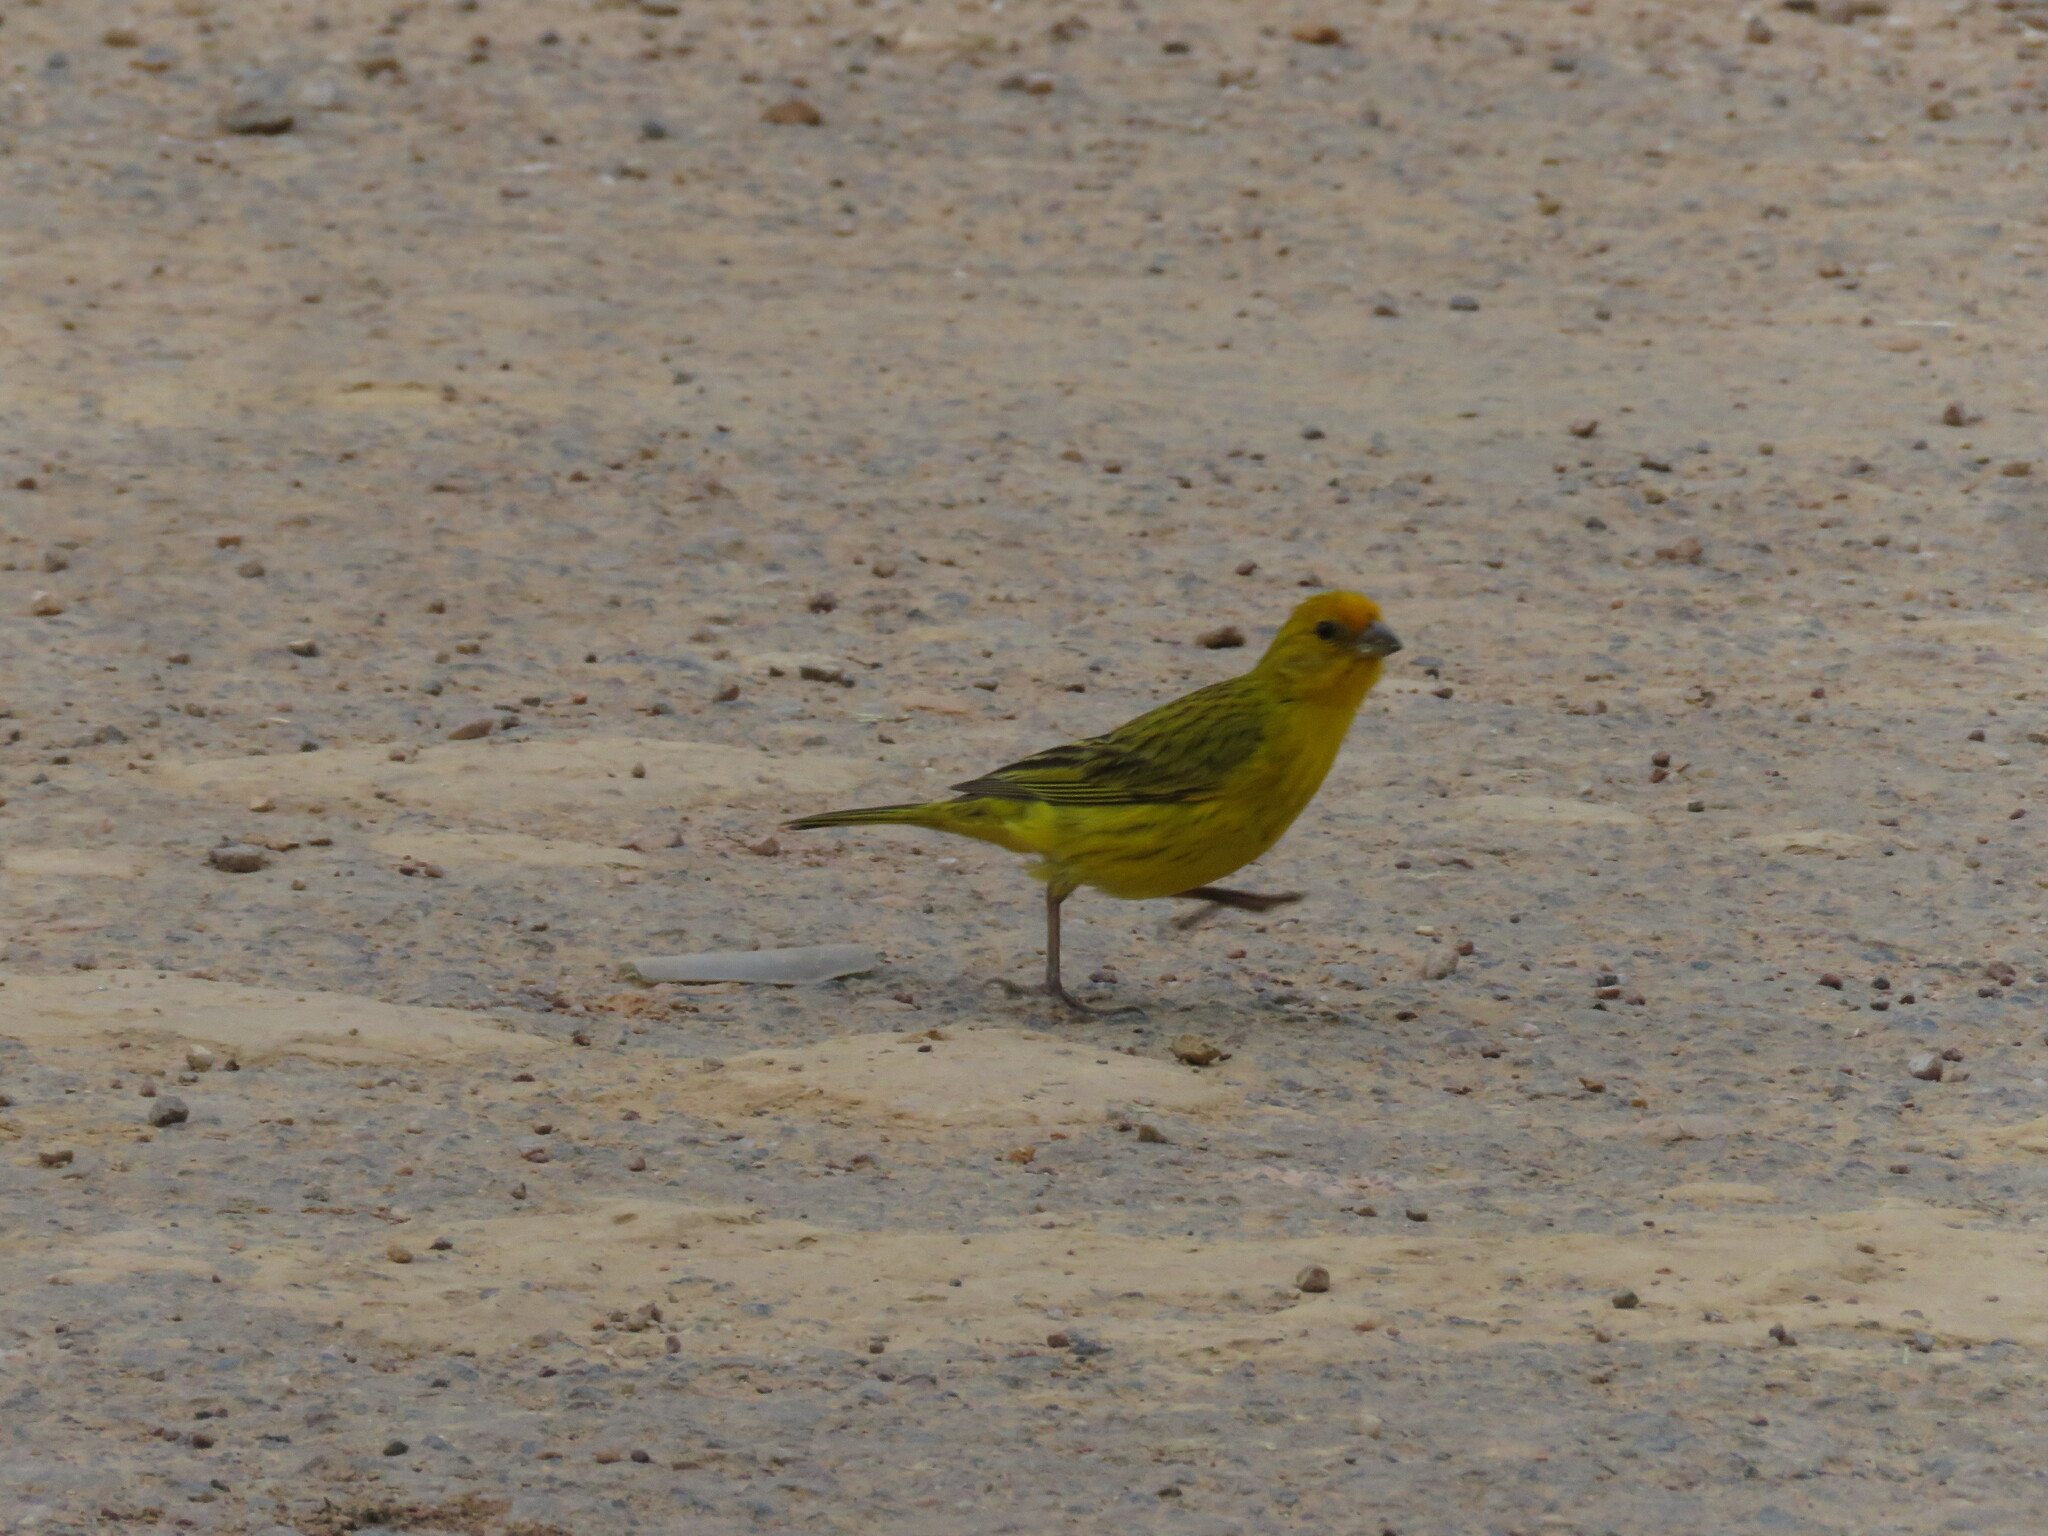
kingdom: Animalia
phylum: Chordata
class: Aves
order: Passeriformes
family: Thraupidae
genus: Sicalis
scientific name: Sicalis flaveola
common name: Saffron finch
